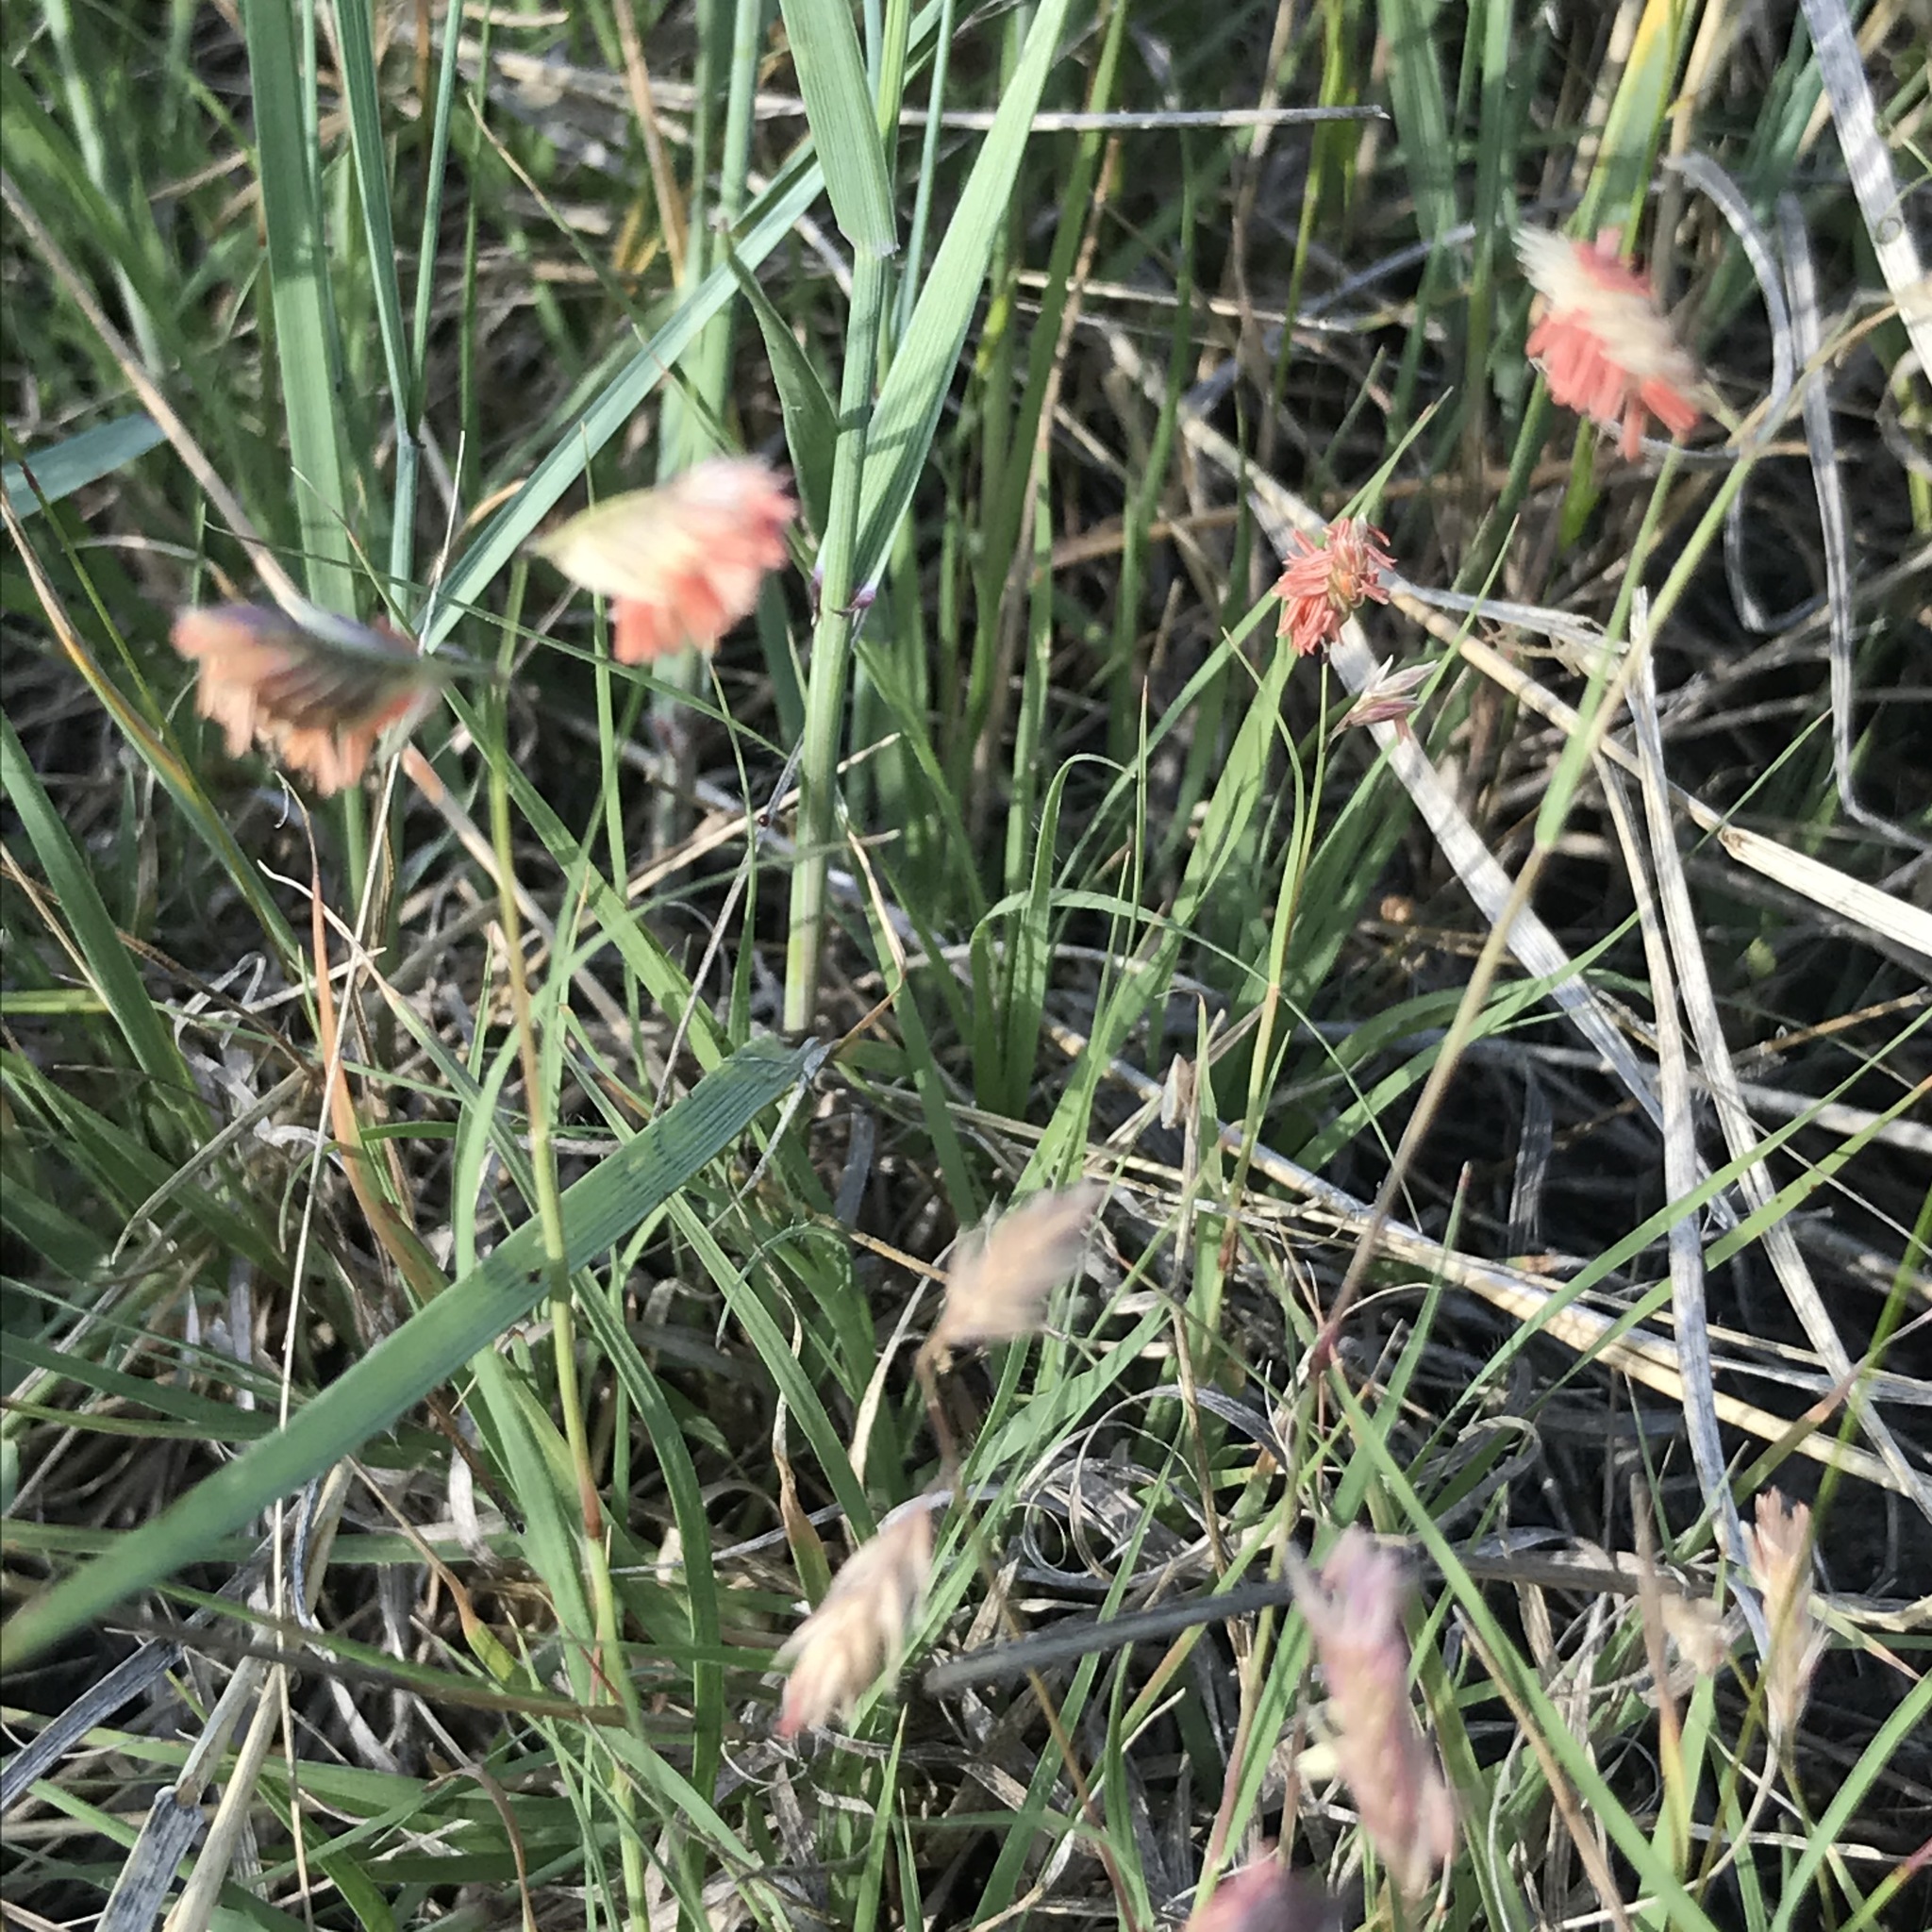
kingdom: Plantae
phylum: Tracheophyta
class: Liliopsida
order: Poales
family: Poaceae
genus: Bouteloua
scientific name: Bouteloua dactyloides
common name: Buffalo grass
